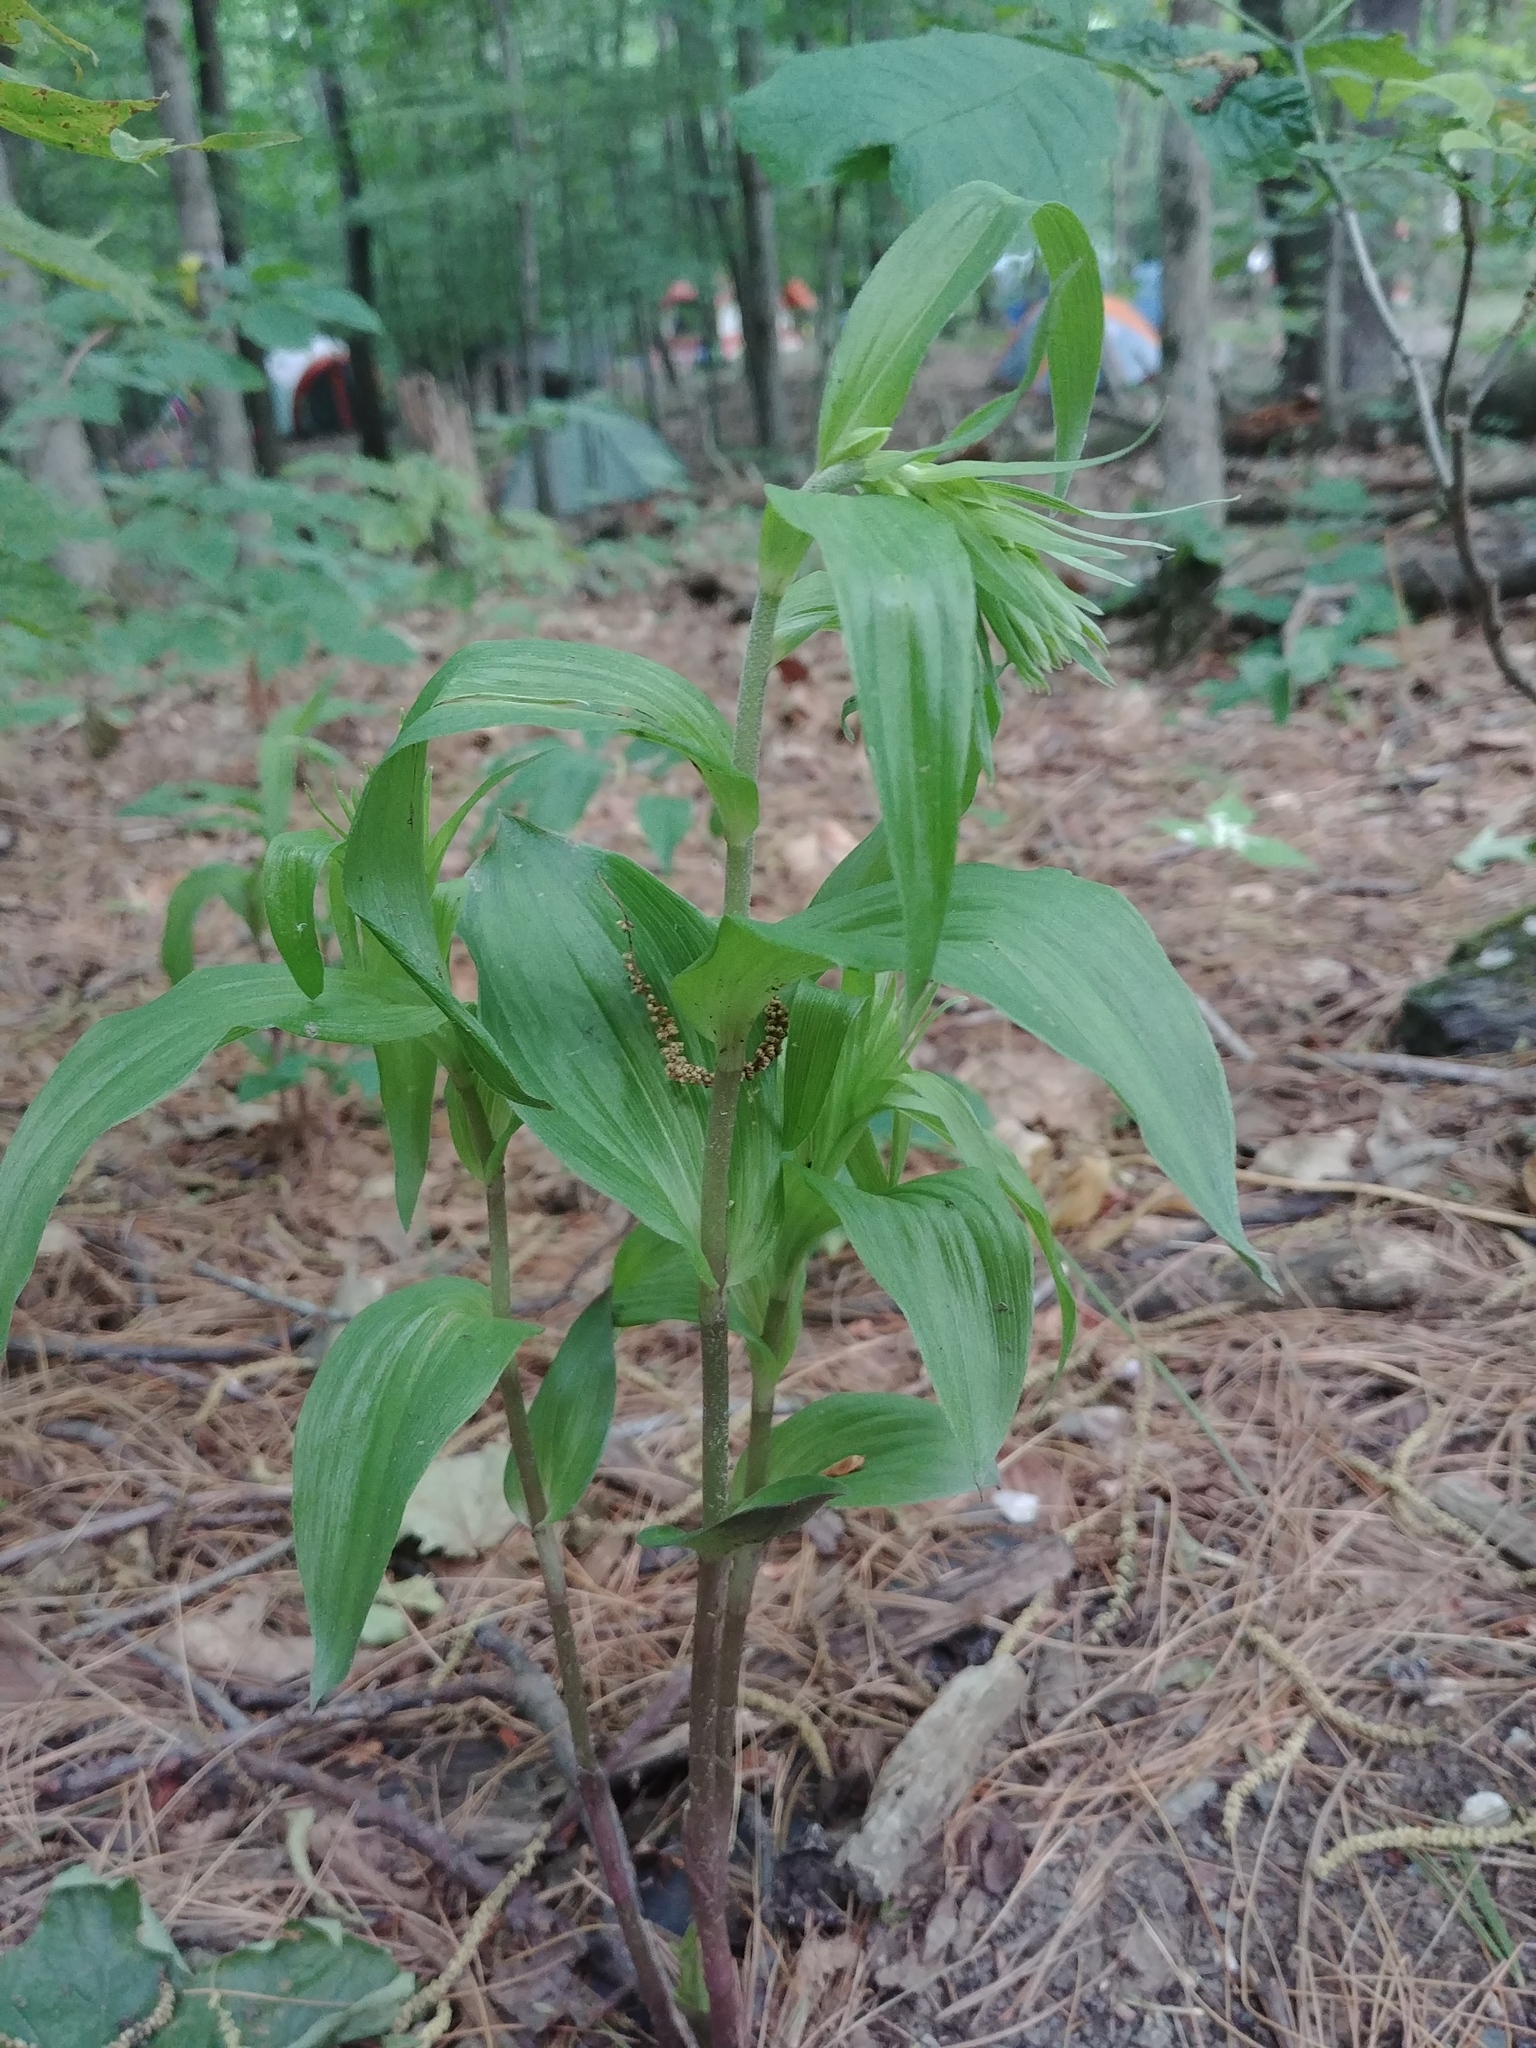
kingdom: Plantae
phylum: Tracheophyta
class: Liliopsida
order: Asparagales
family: Orchidaceae
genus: Epipactis
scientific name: Epipactis helleborine
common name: Broad-leaved helleborine
